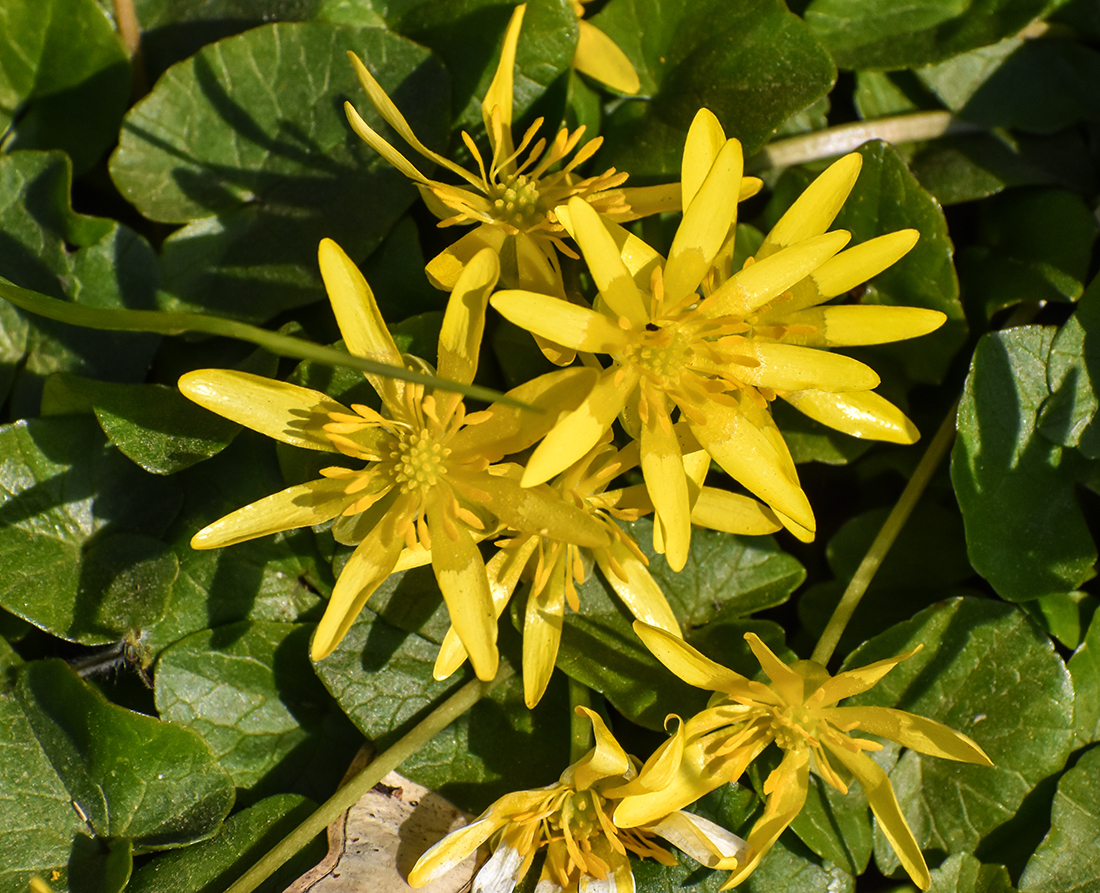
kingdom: Plantae
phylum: Tracheophyta
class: Magnoliopsida
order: Ranunculales
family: Ranunculaceae
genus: Ficaria
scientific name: Ficaria verna
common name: Lesser celandine
